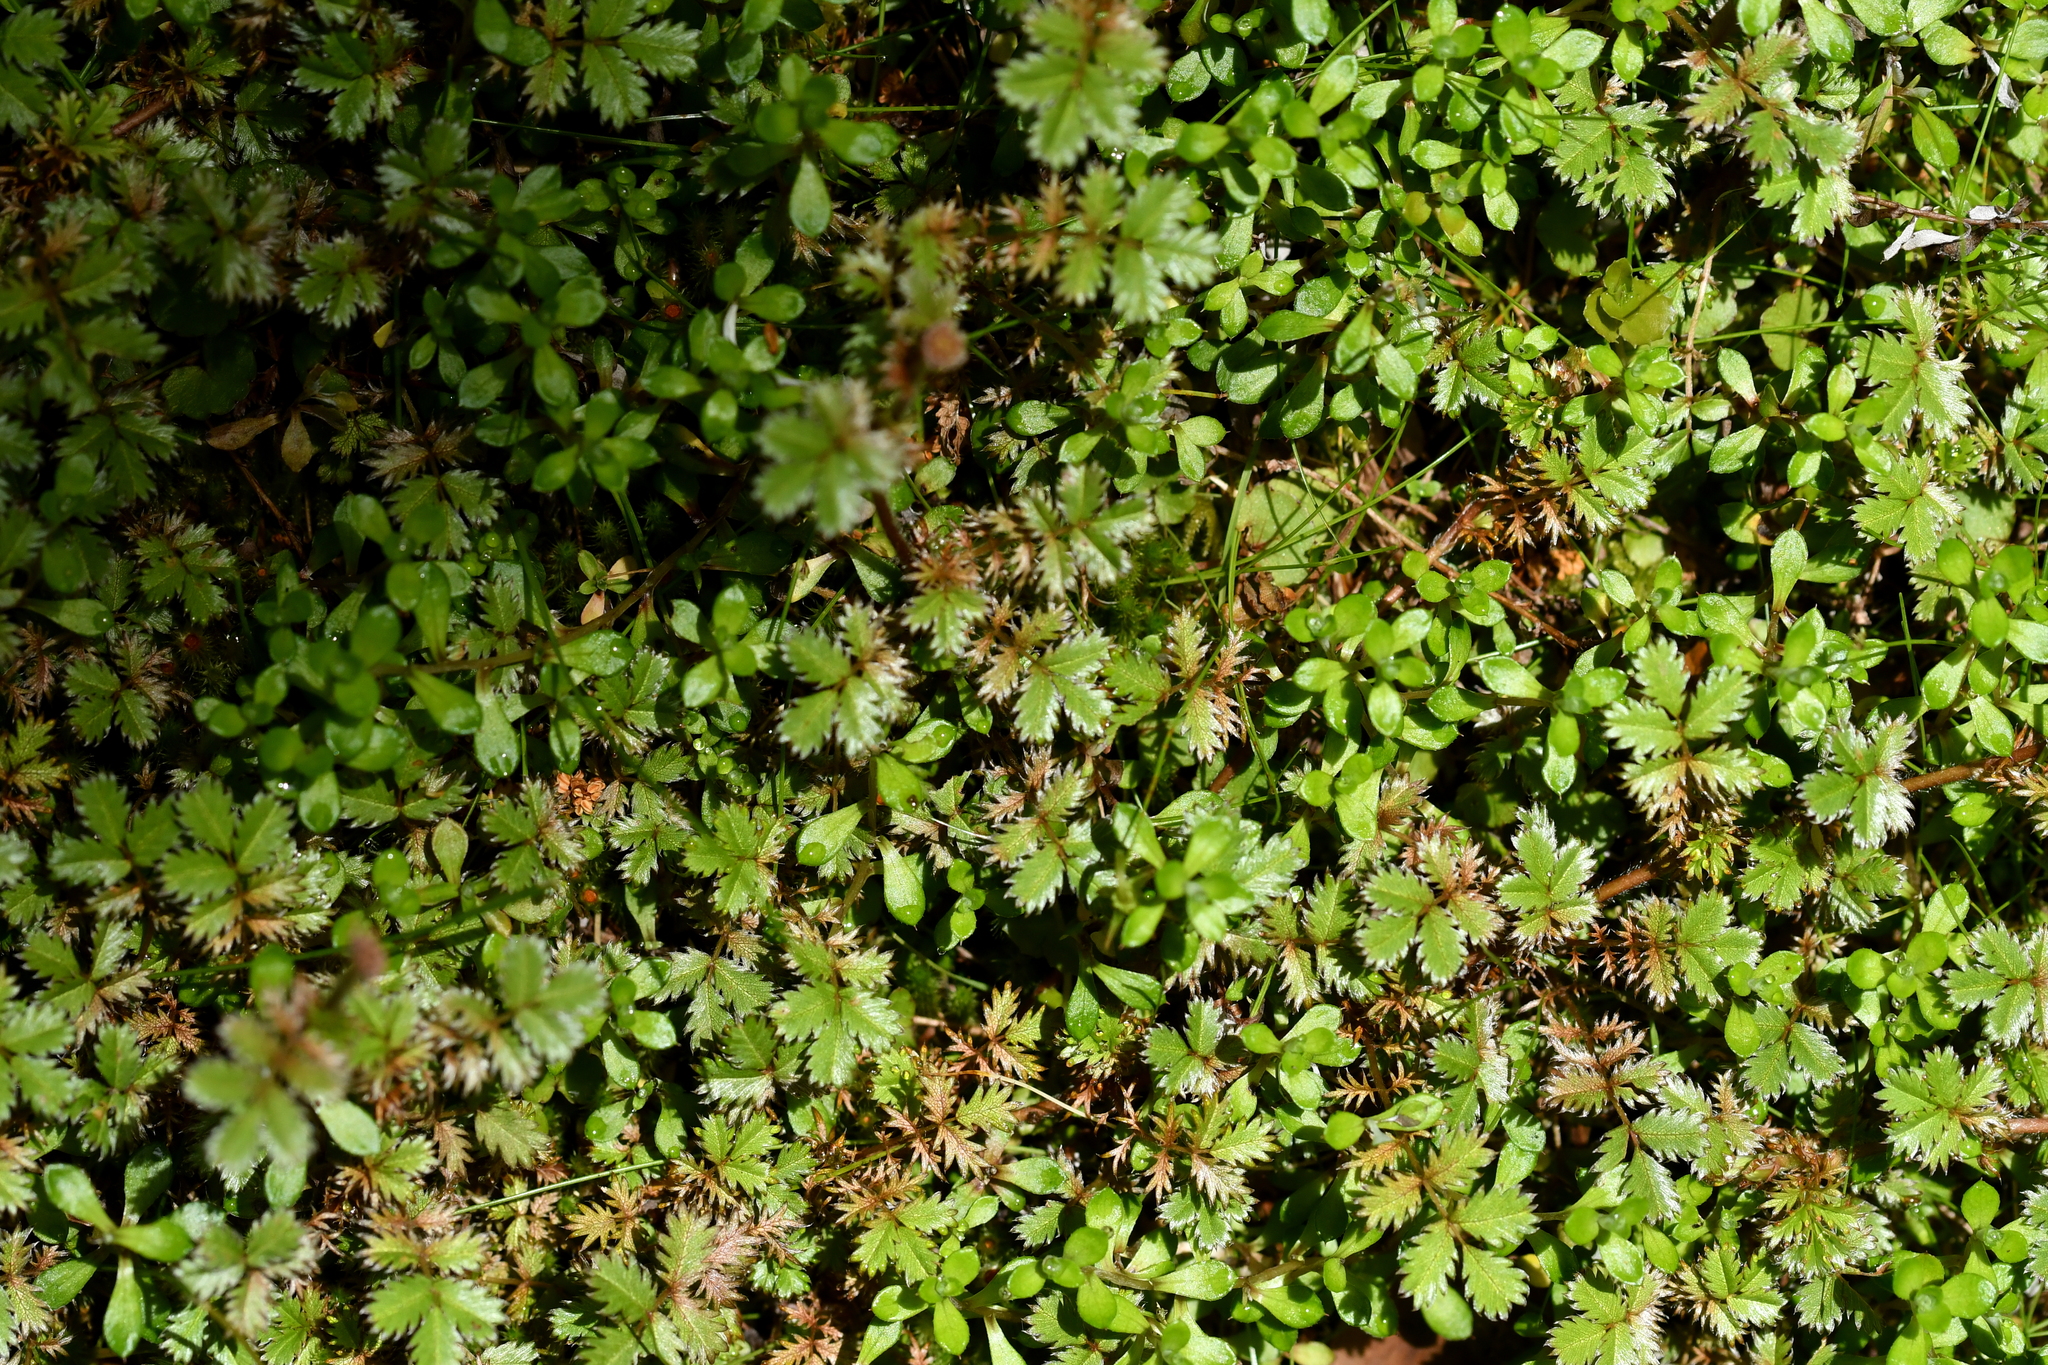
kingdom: Plantae
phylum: Tracheophyta
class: Magnoliopsida
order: Rosales
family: Rosaceae
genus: Acaena
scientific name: Acaena anserinifolia
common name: Bronze pirri-pirri-bur
